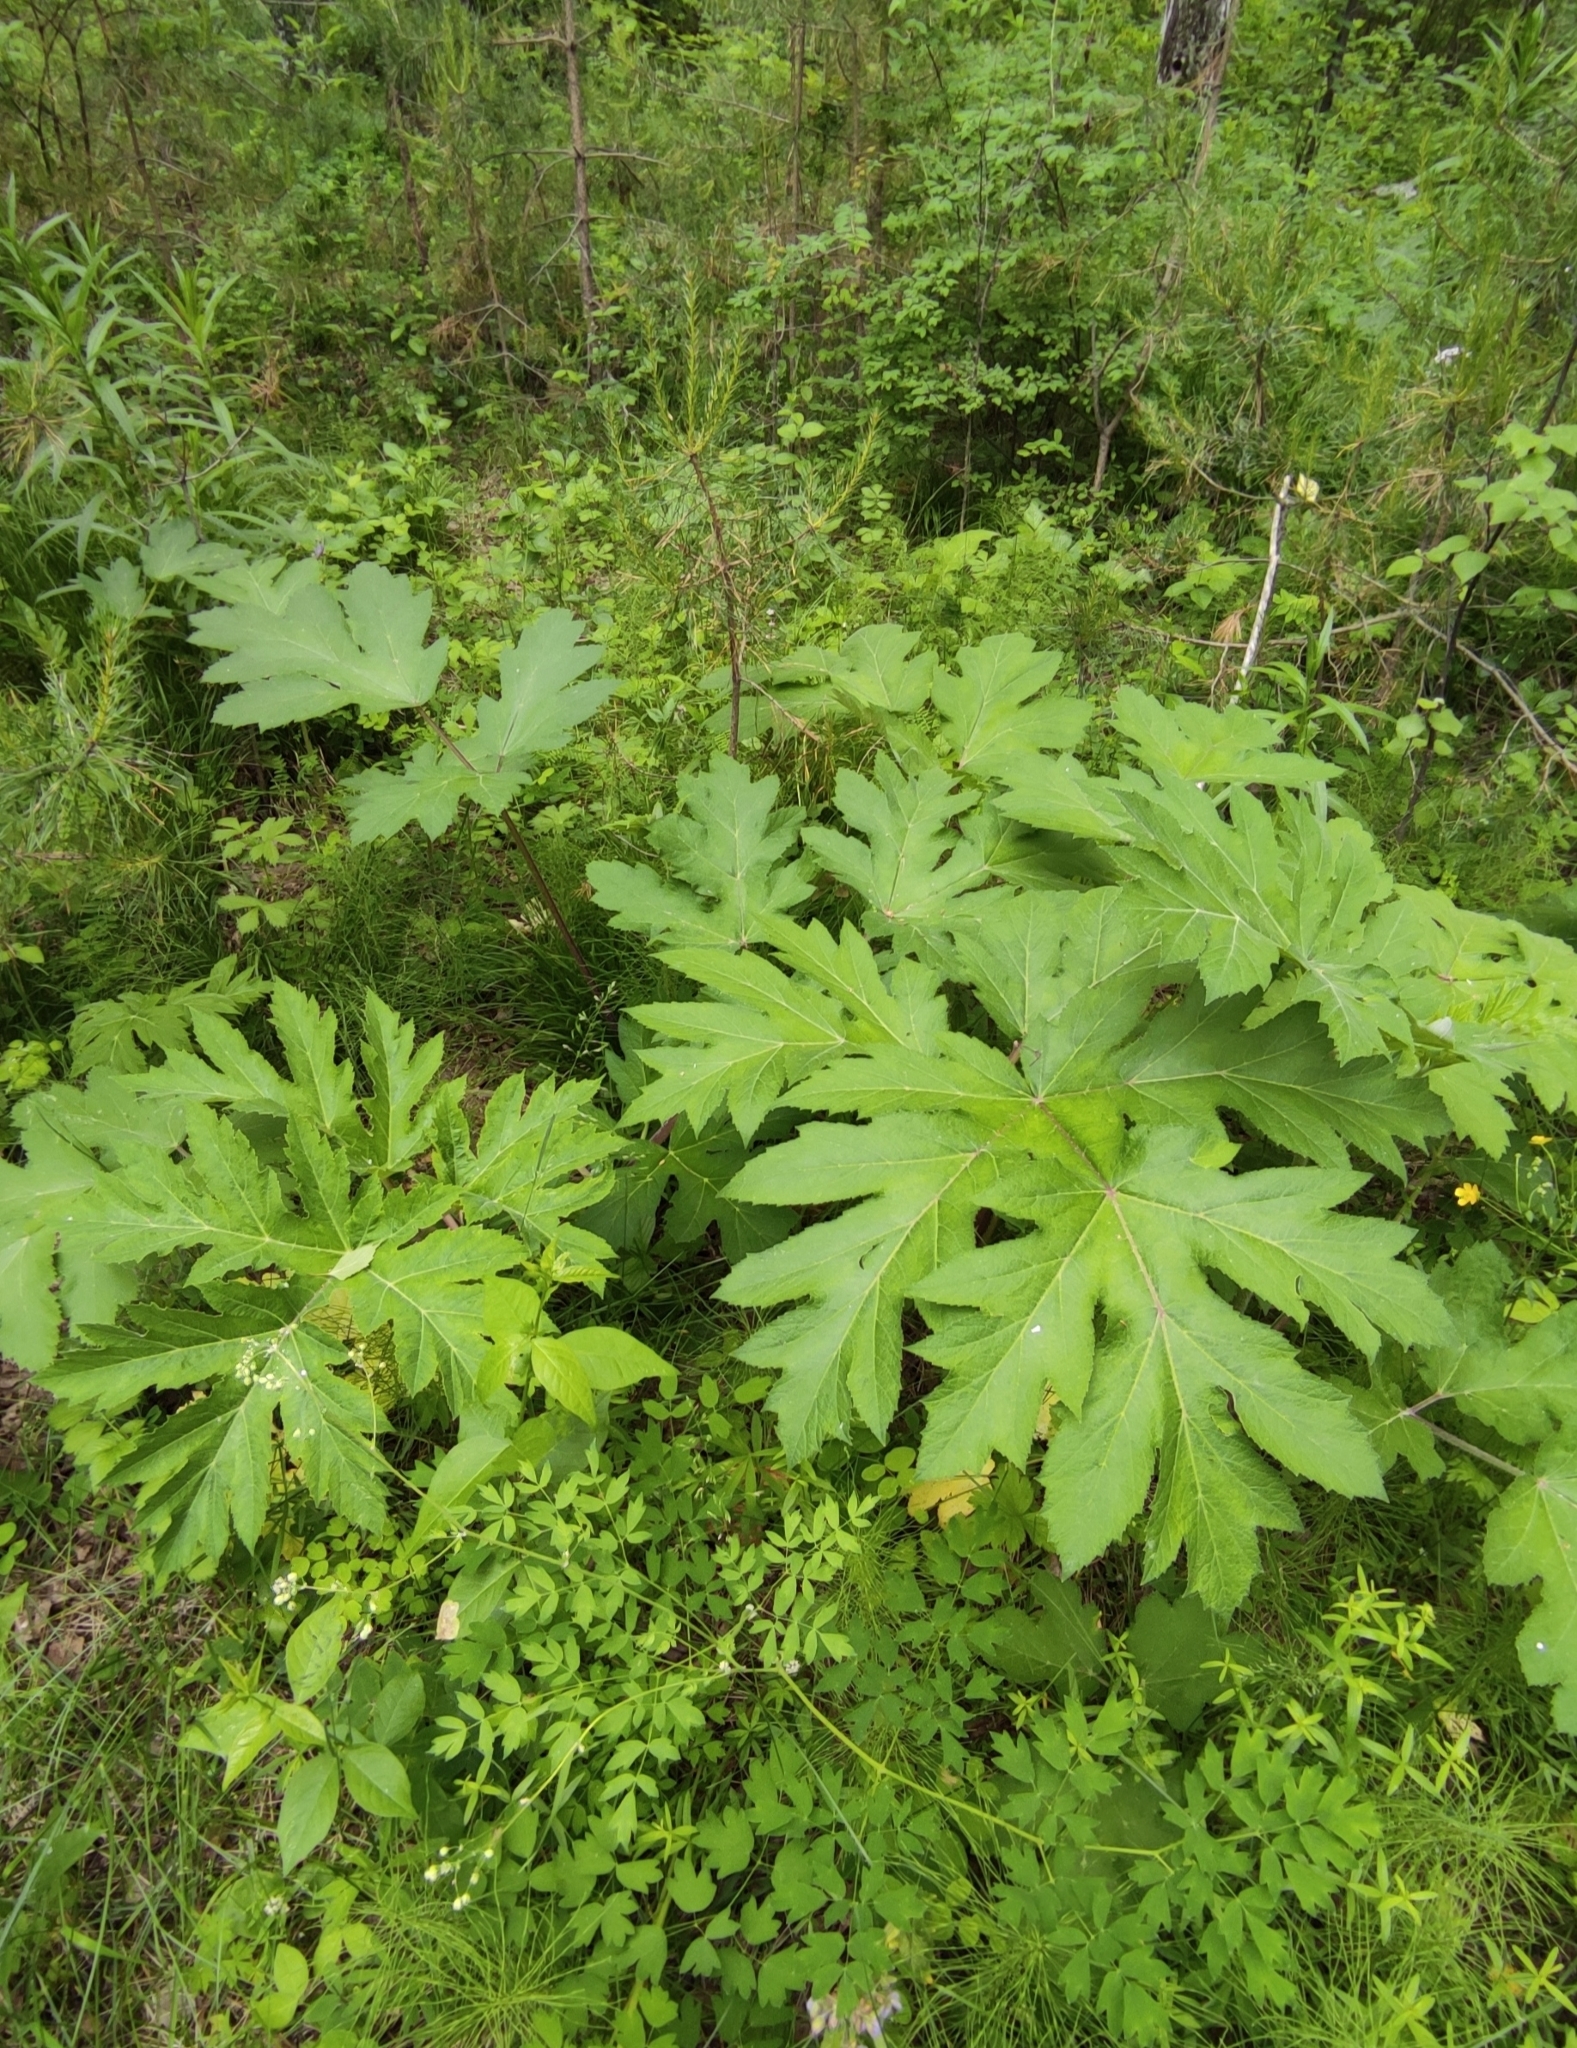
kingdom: Plantae
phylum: Tracheophyta
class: Magnoliopsida
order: Apiales
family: Apiaceae
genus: Heracleum
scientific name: Heracleum dissectum
